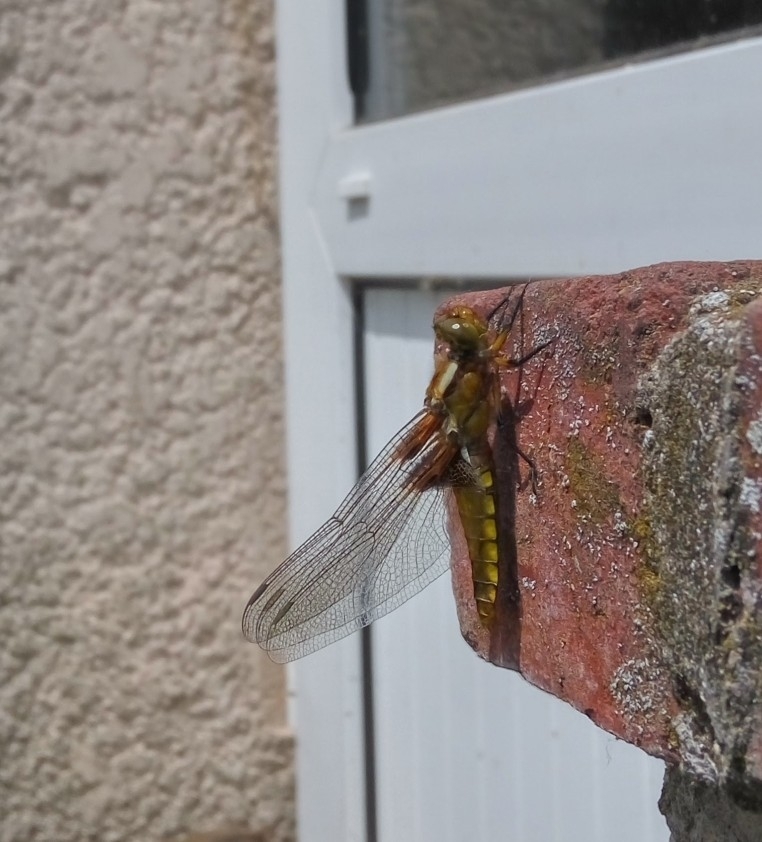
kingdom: Animalia
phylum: Arthropoda
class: Insecta
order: Odonata
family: Libellulidae
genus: Libellula
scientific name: Libellula depressa
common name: Broad-bodied chaser
